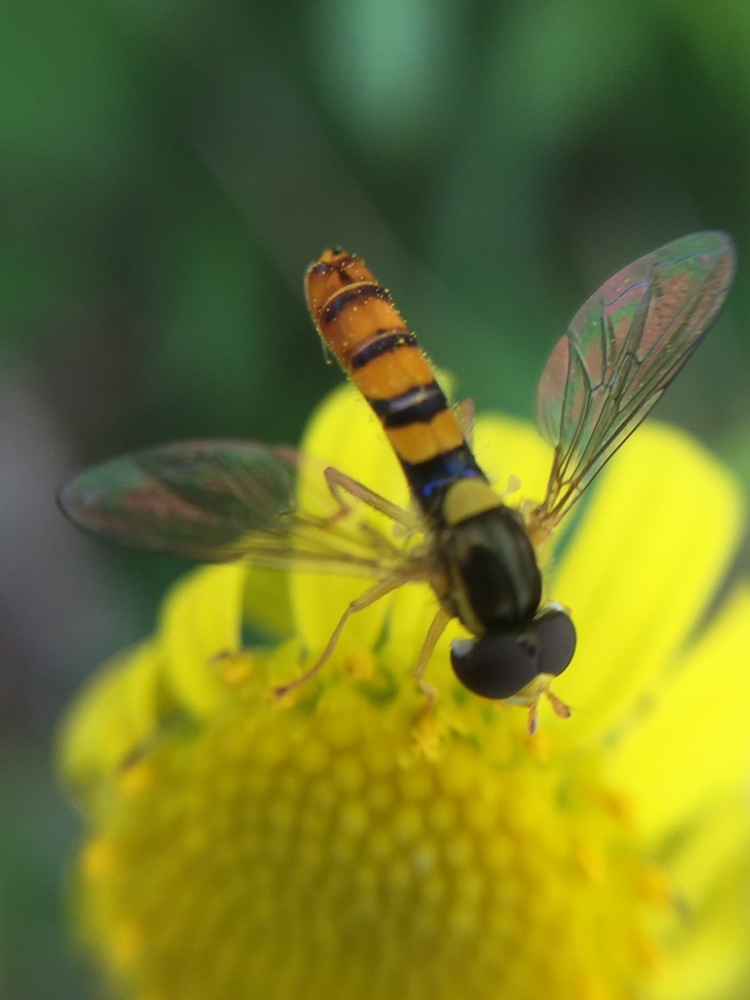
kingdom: Animalia
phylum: Arthropoda
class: Insecta
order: Diptera
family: Syrphidae
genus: Sphaerophoria
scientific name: Sphaerophoria macrogaster
